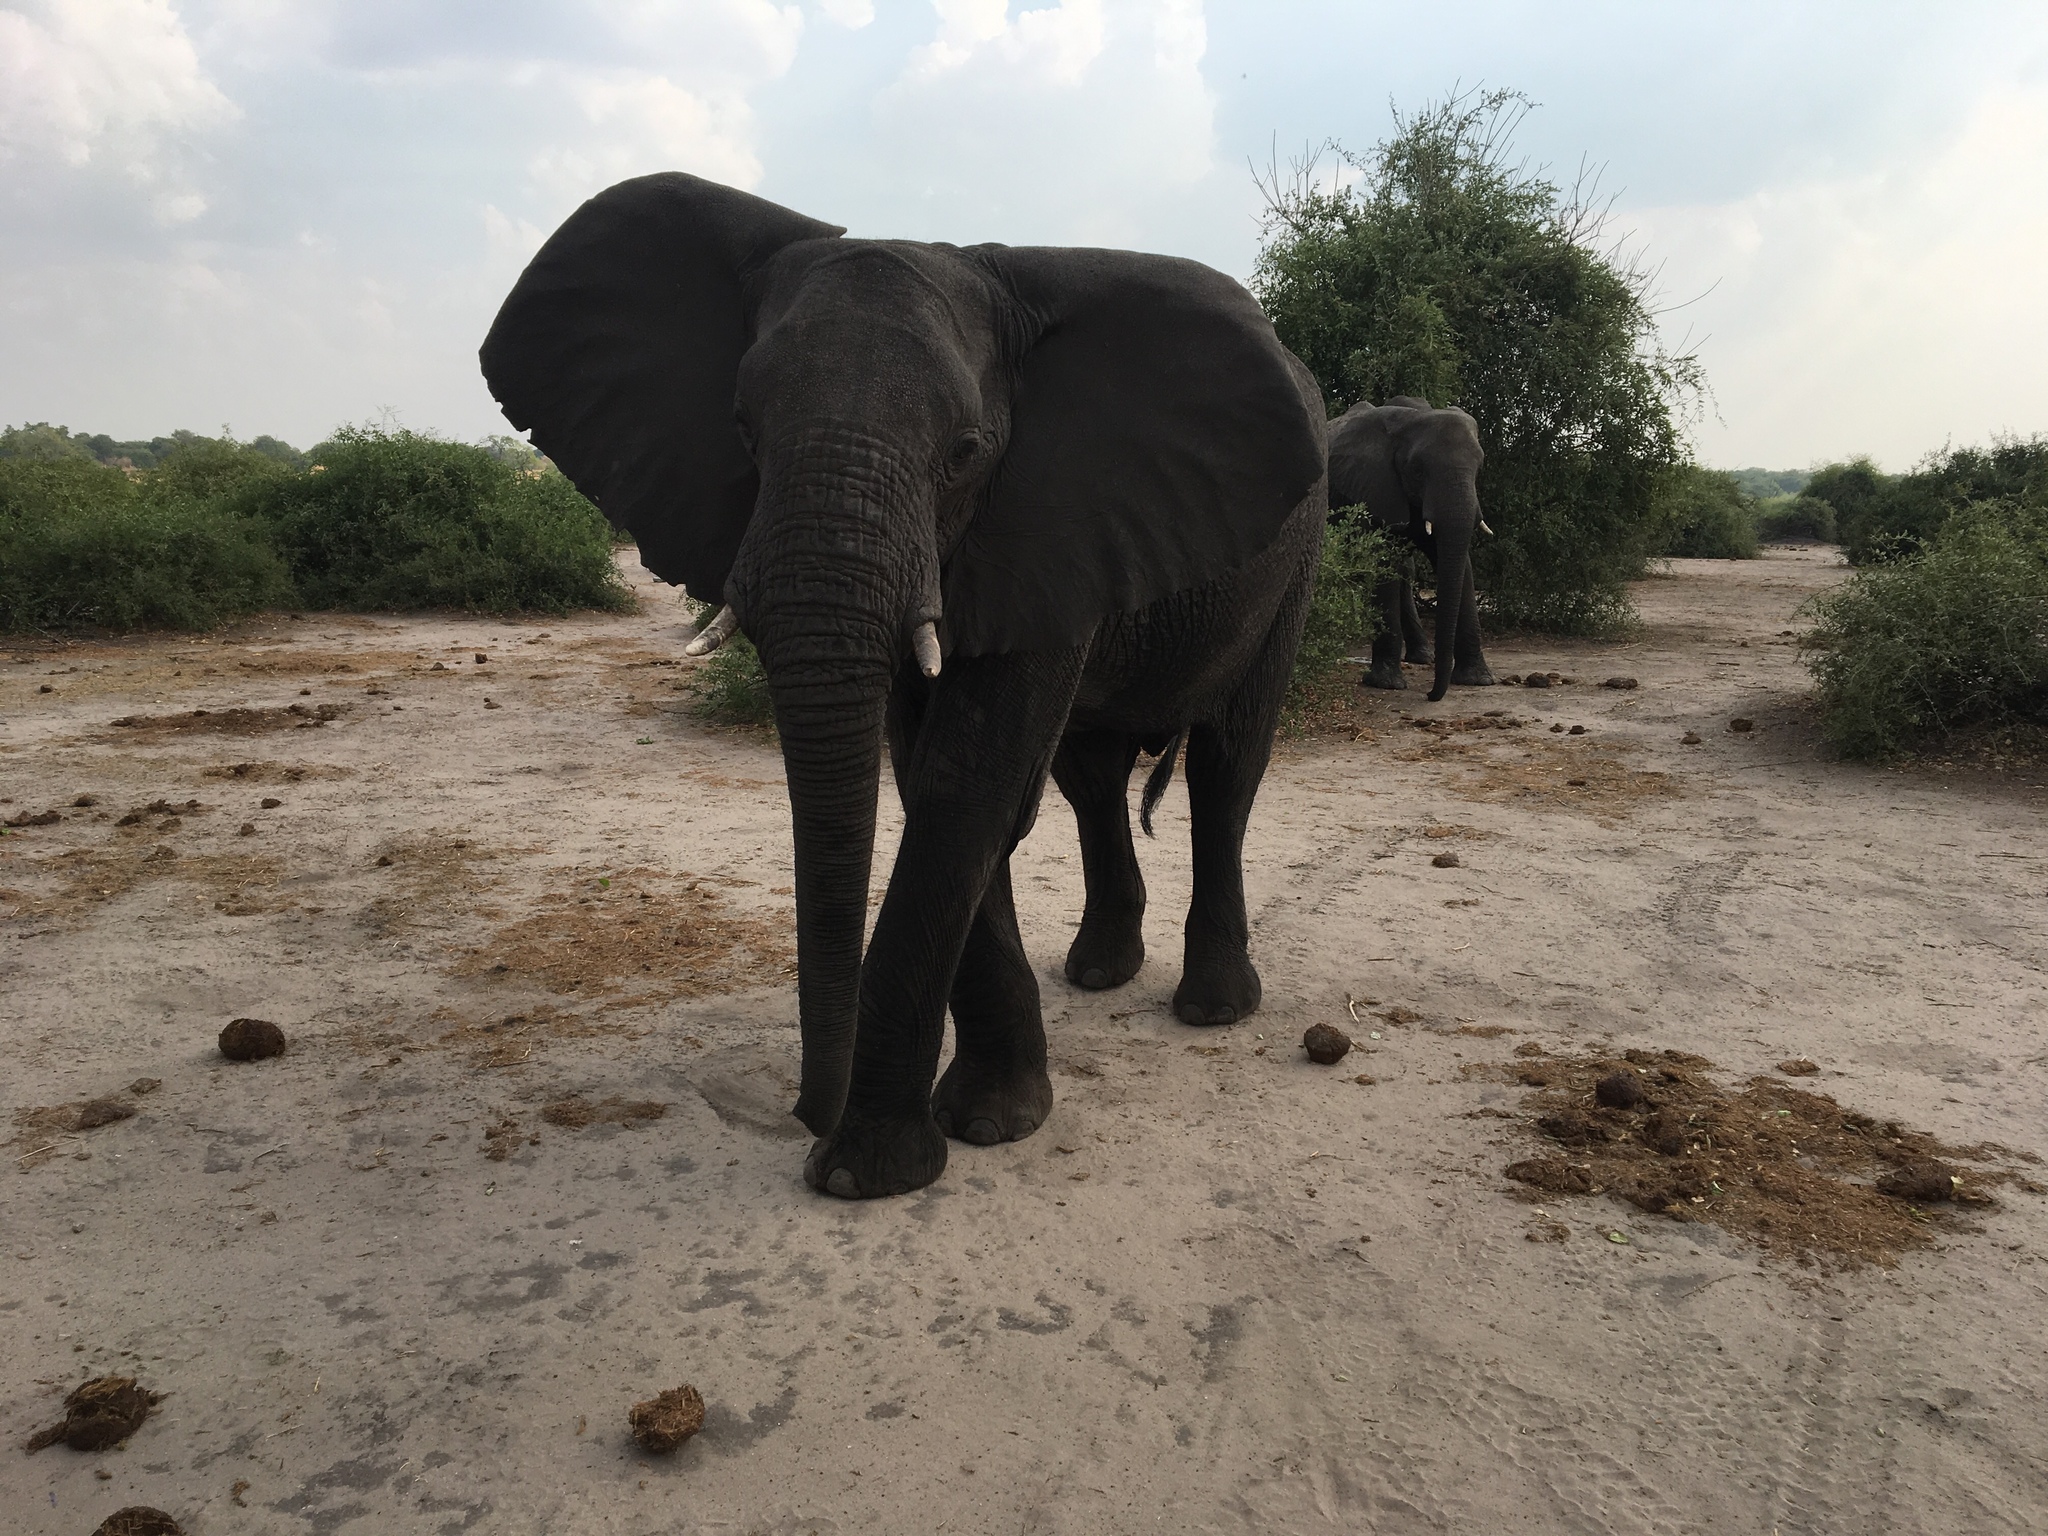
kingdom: Animalia
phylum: Chordata
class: Mammalia
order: Proboscidea
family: Elephantidae
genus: Loxodonta
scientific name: Loxodonta africana
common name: African elephant
